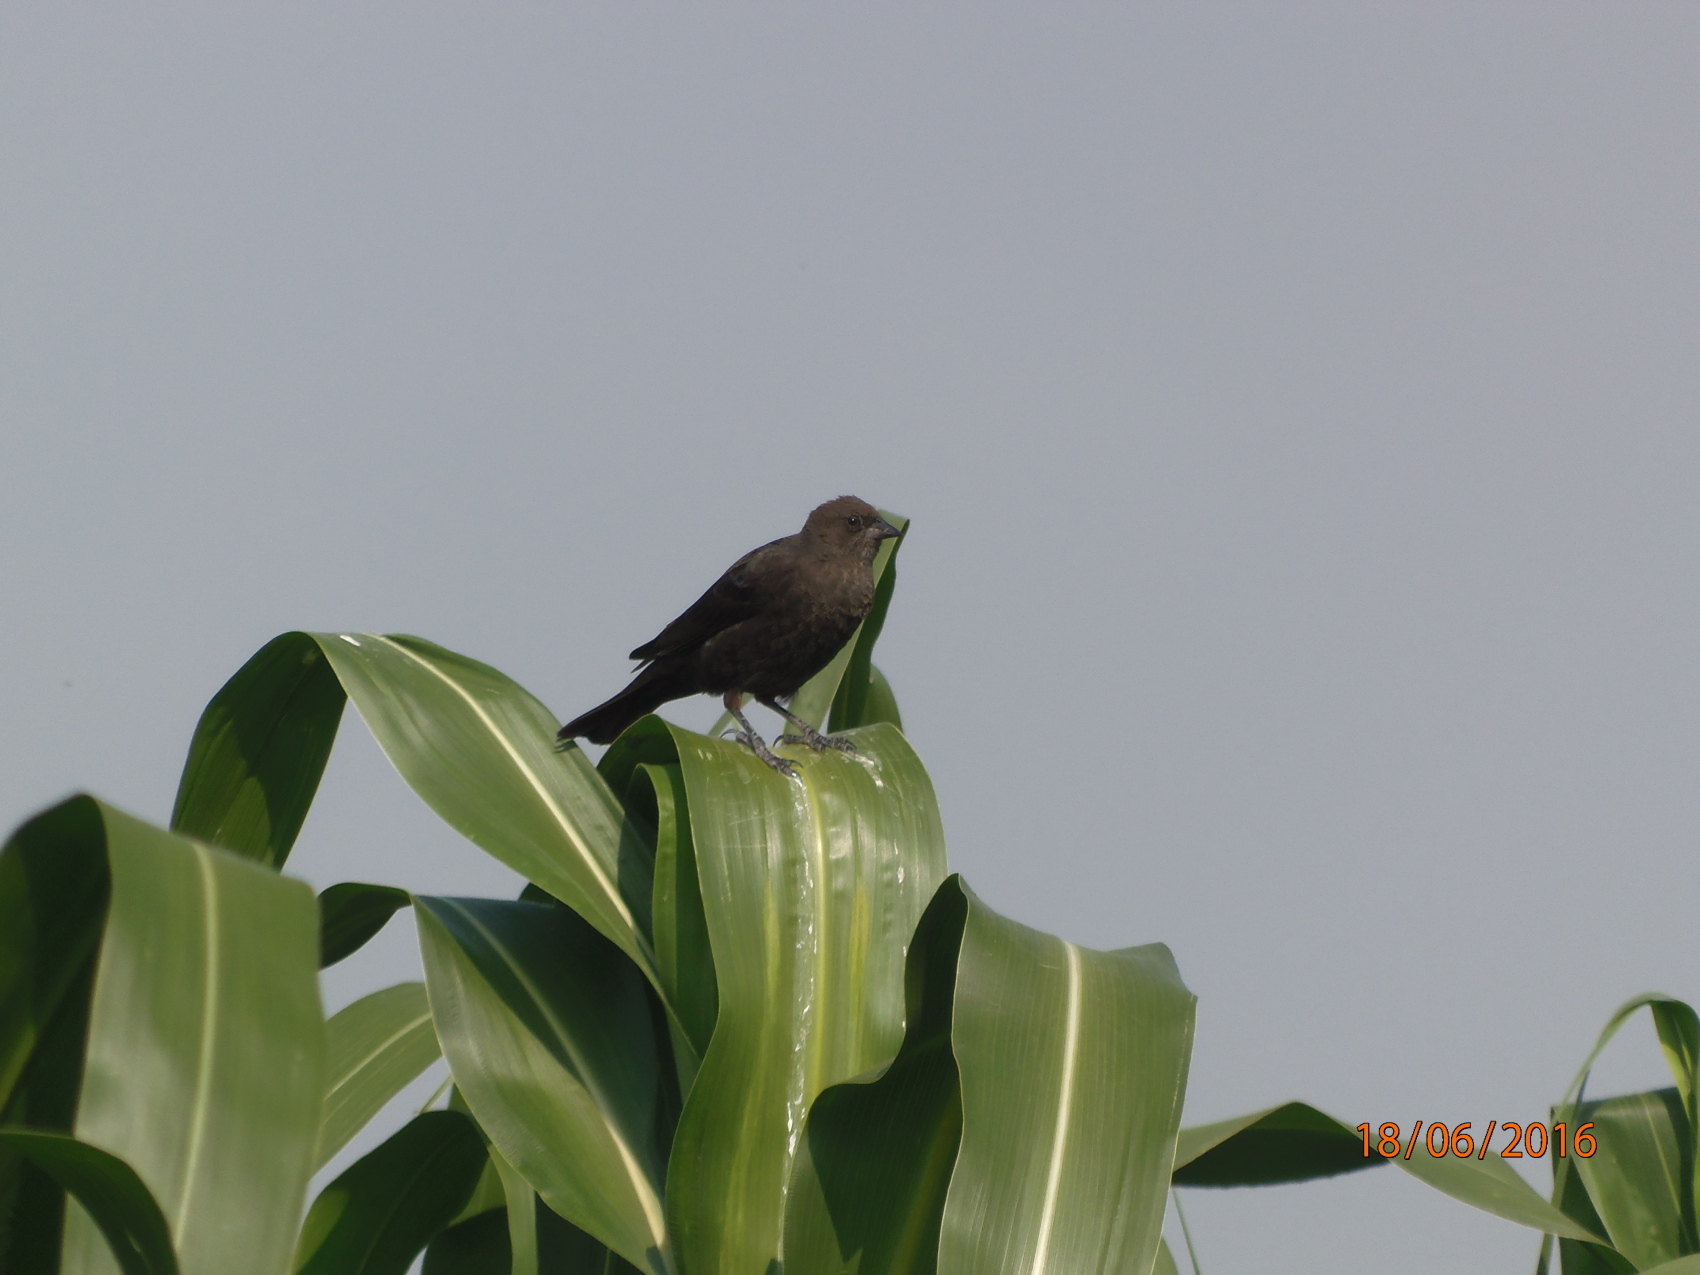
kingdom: Animalia
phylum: Chordata
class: Aves
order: Passeriformes
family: Icteridae
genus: Molothrus
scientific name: Molothrus ater
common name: Brown-headed cowbird
